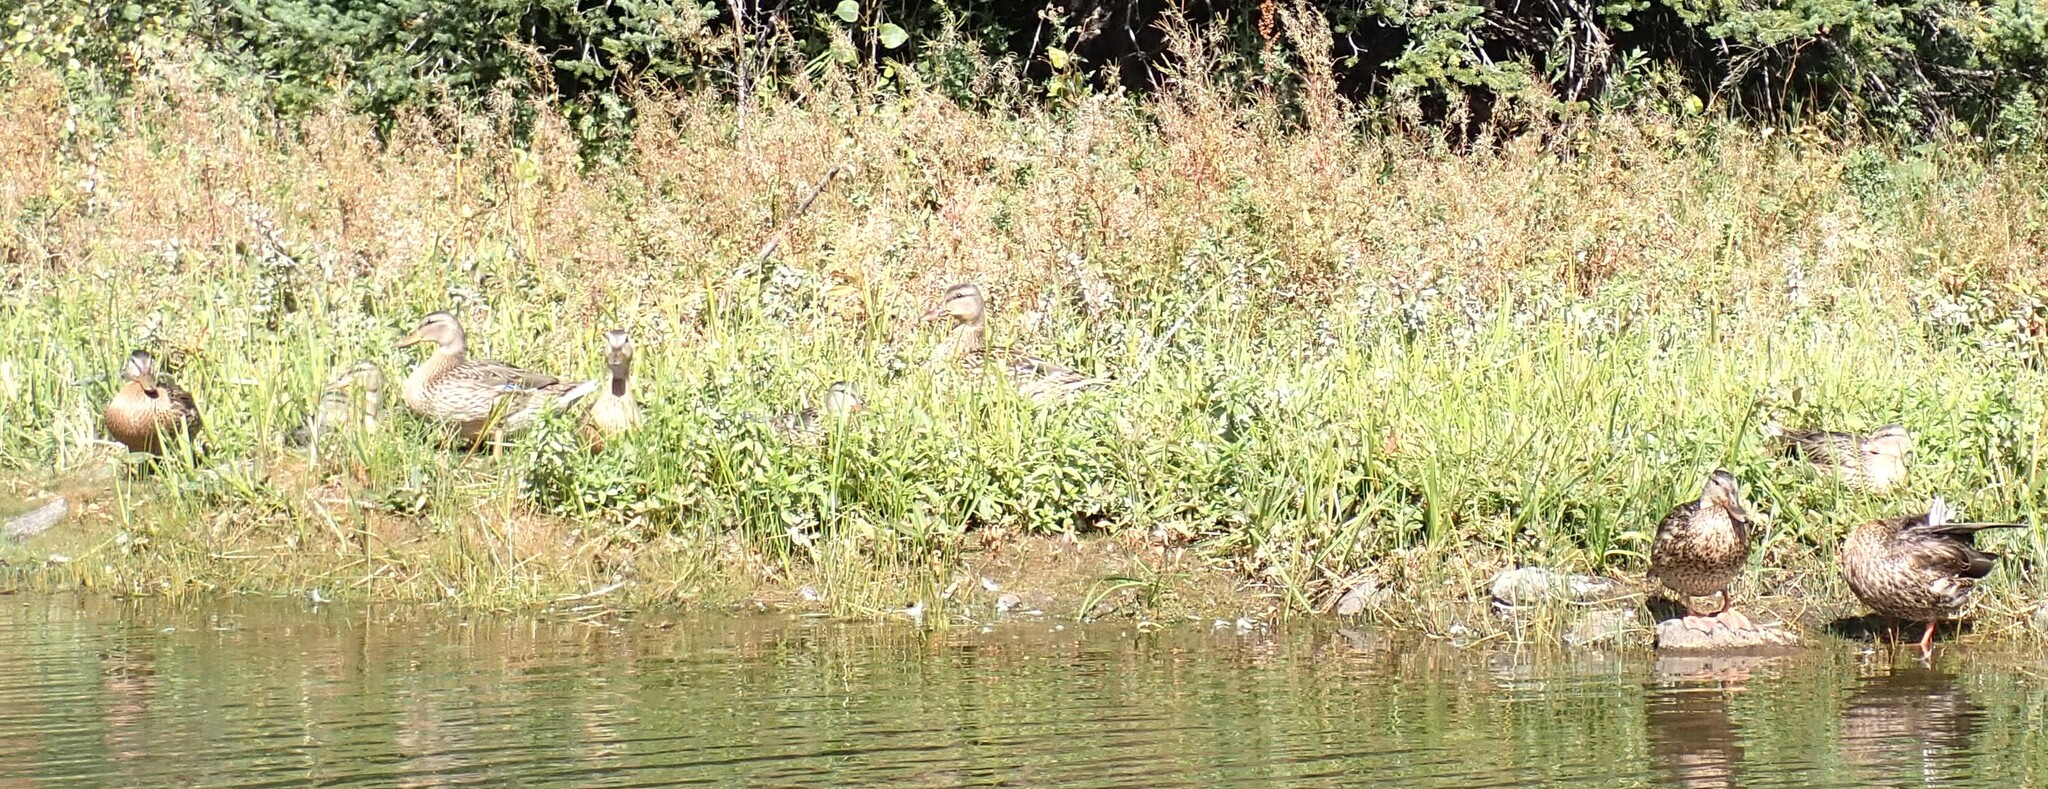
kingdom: Animalia
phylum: Chordata
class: Aves
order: Anseriformes
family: Anatidae
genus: Anas
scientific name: Anas platyrhynchos
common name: Mallard
